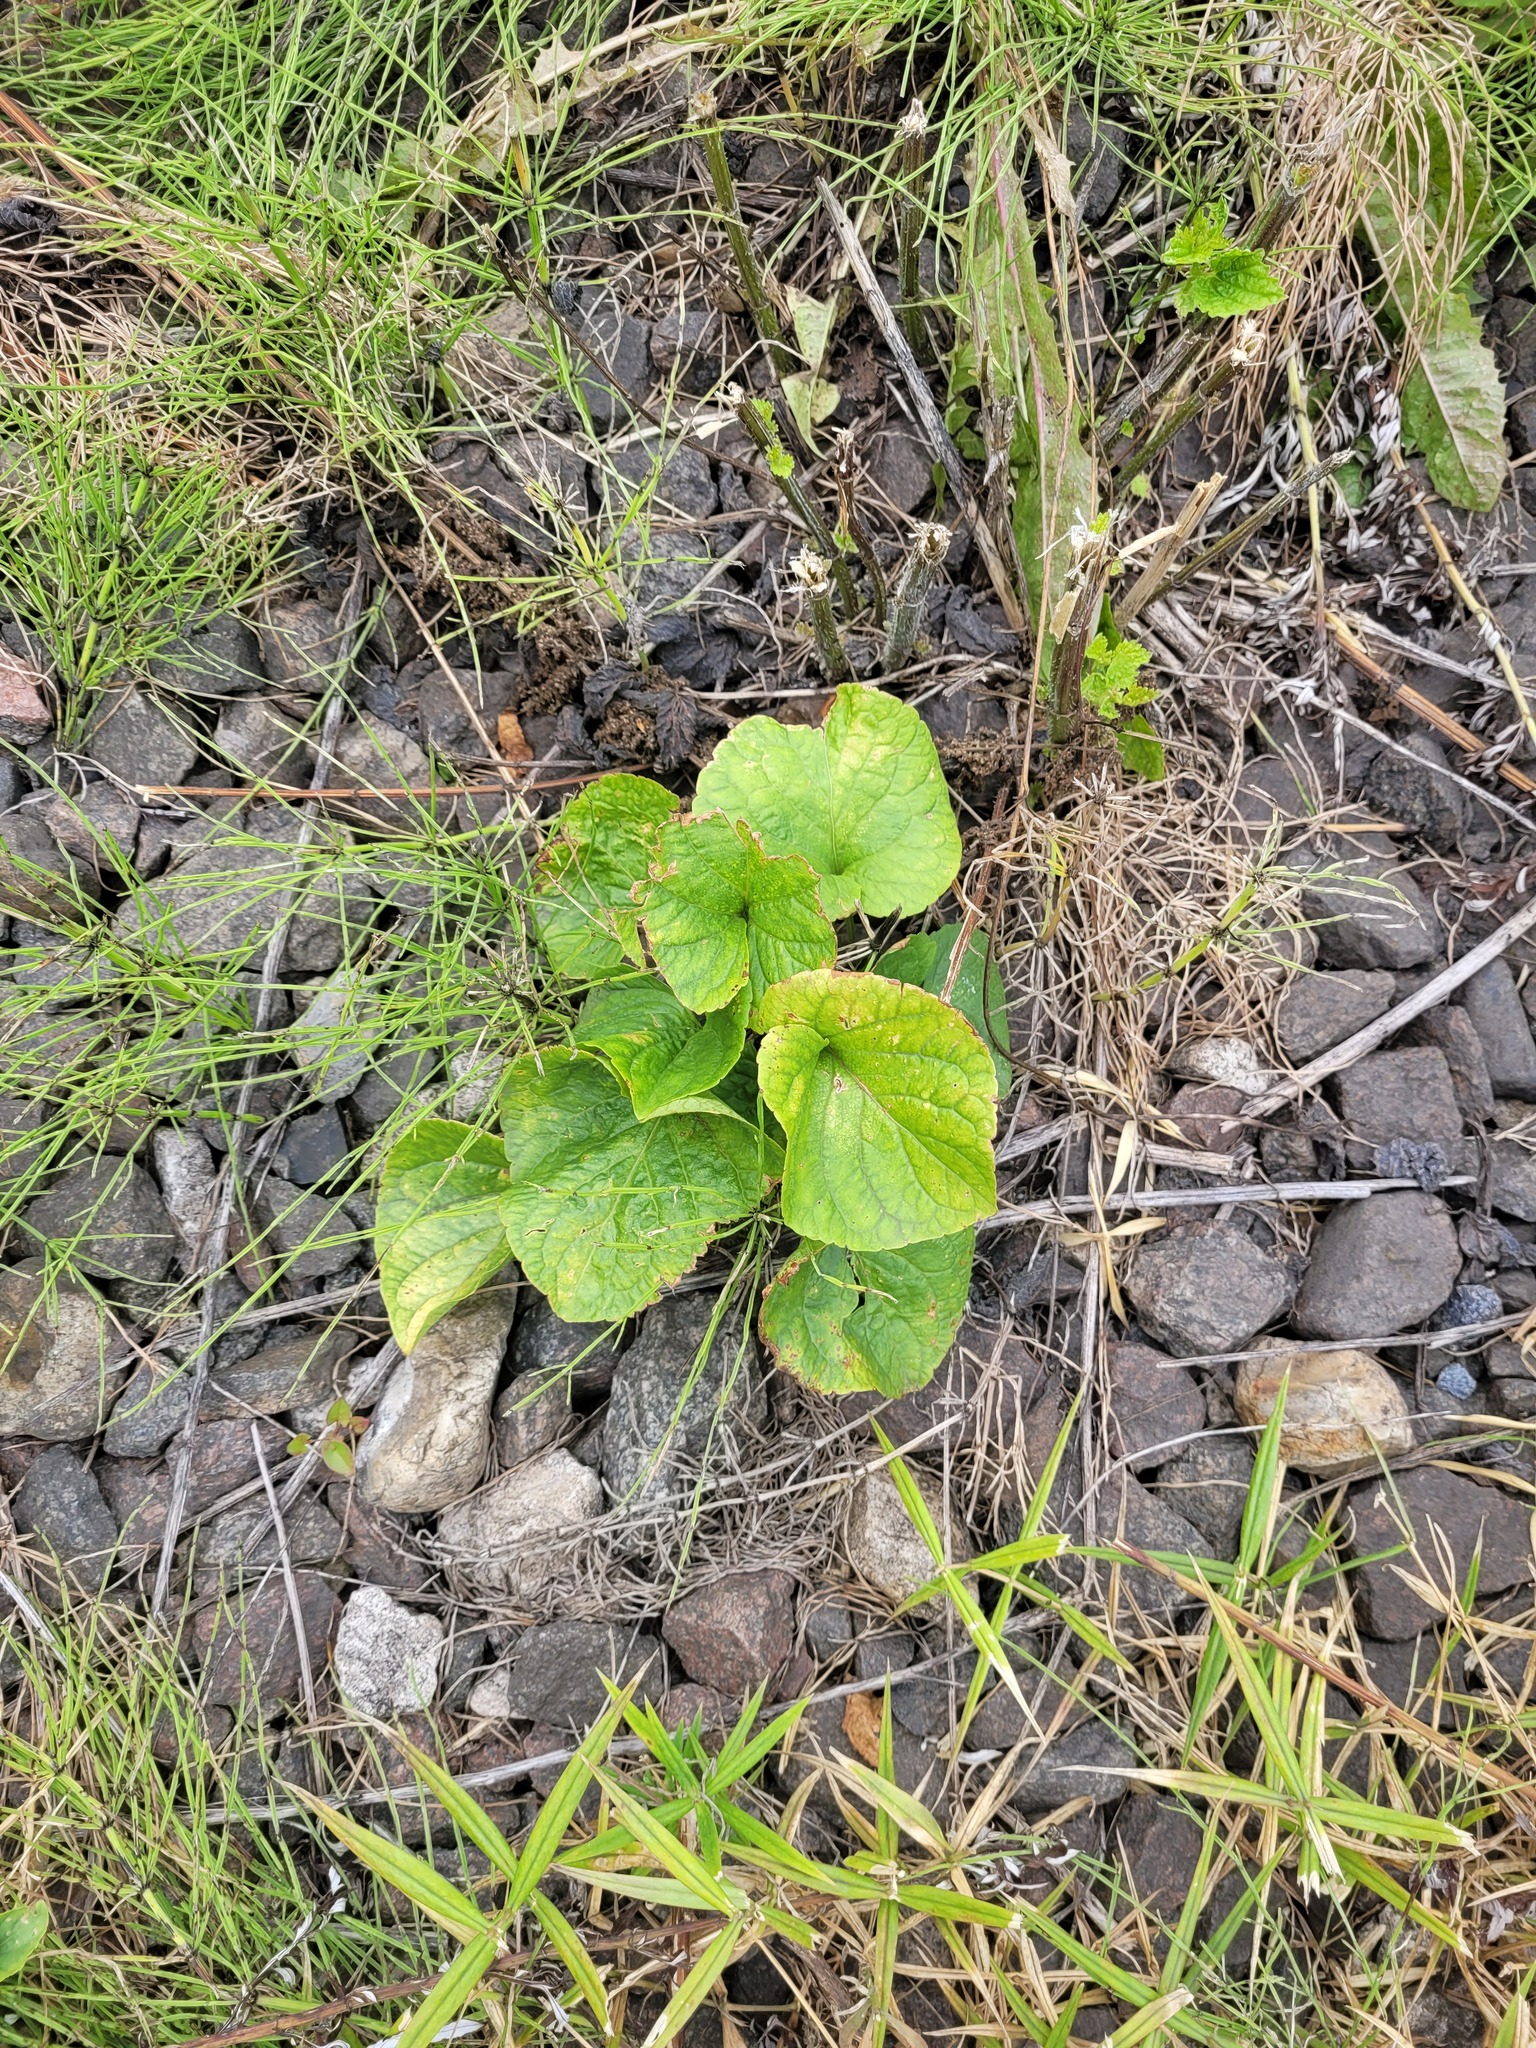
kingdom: Plantae
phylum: Tracheophyta
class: Magnoliopsida
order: Malpighiales
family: Violaceae
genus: Viola
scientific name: Viola mirabilis
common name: Wonder violet
